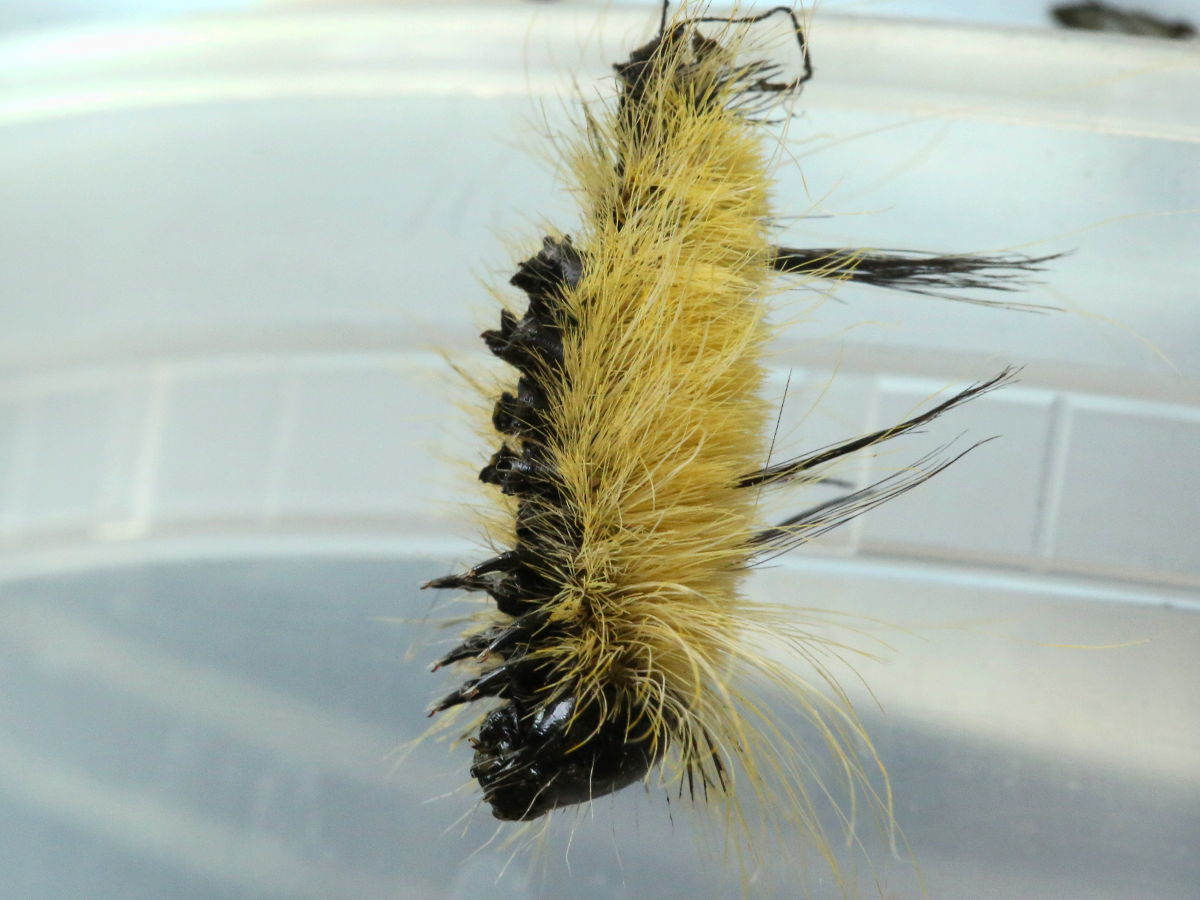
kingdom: Animalia
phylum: Arthropoda
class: Insecta
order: Lepidoptera
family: Noctuidae
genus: Acronicta
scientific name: Acronicta americana
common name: American dagger
